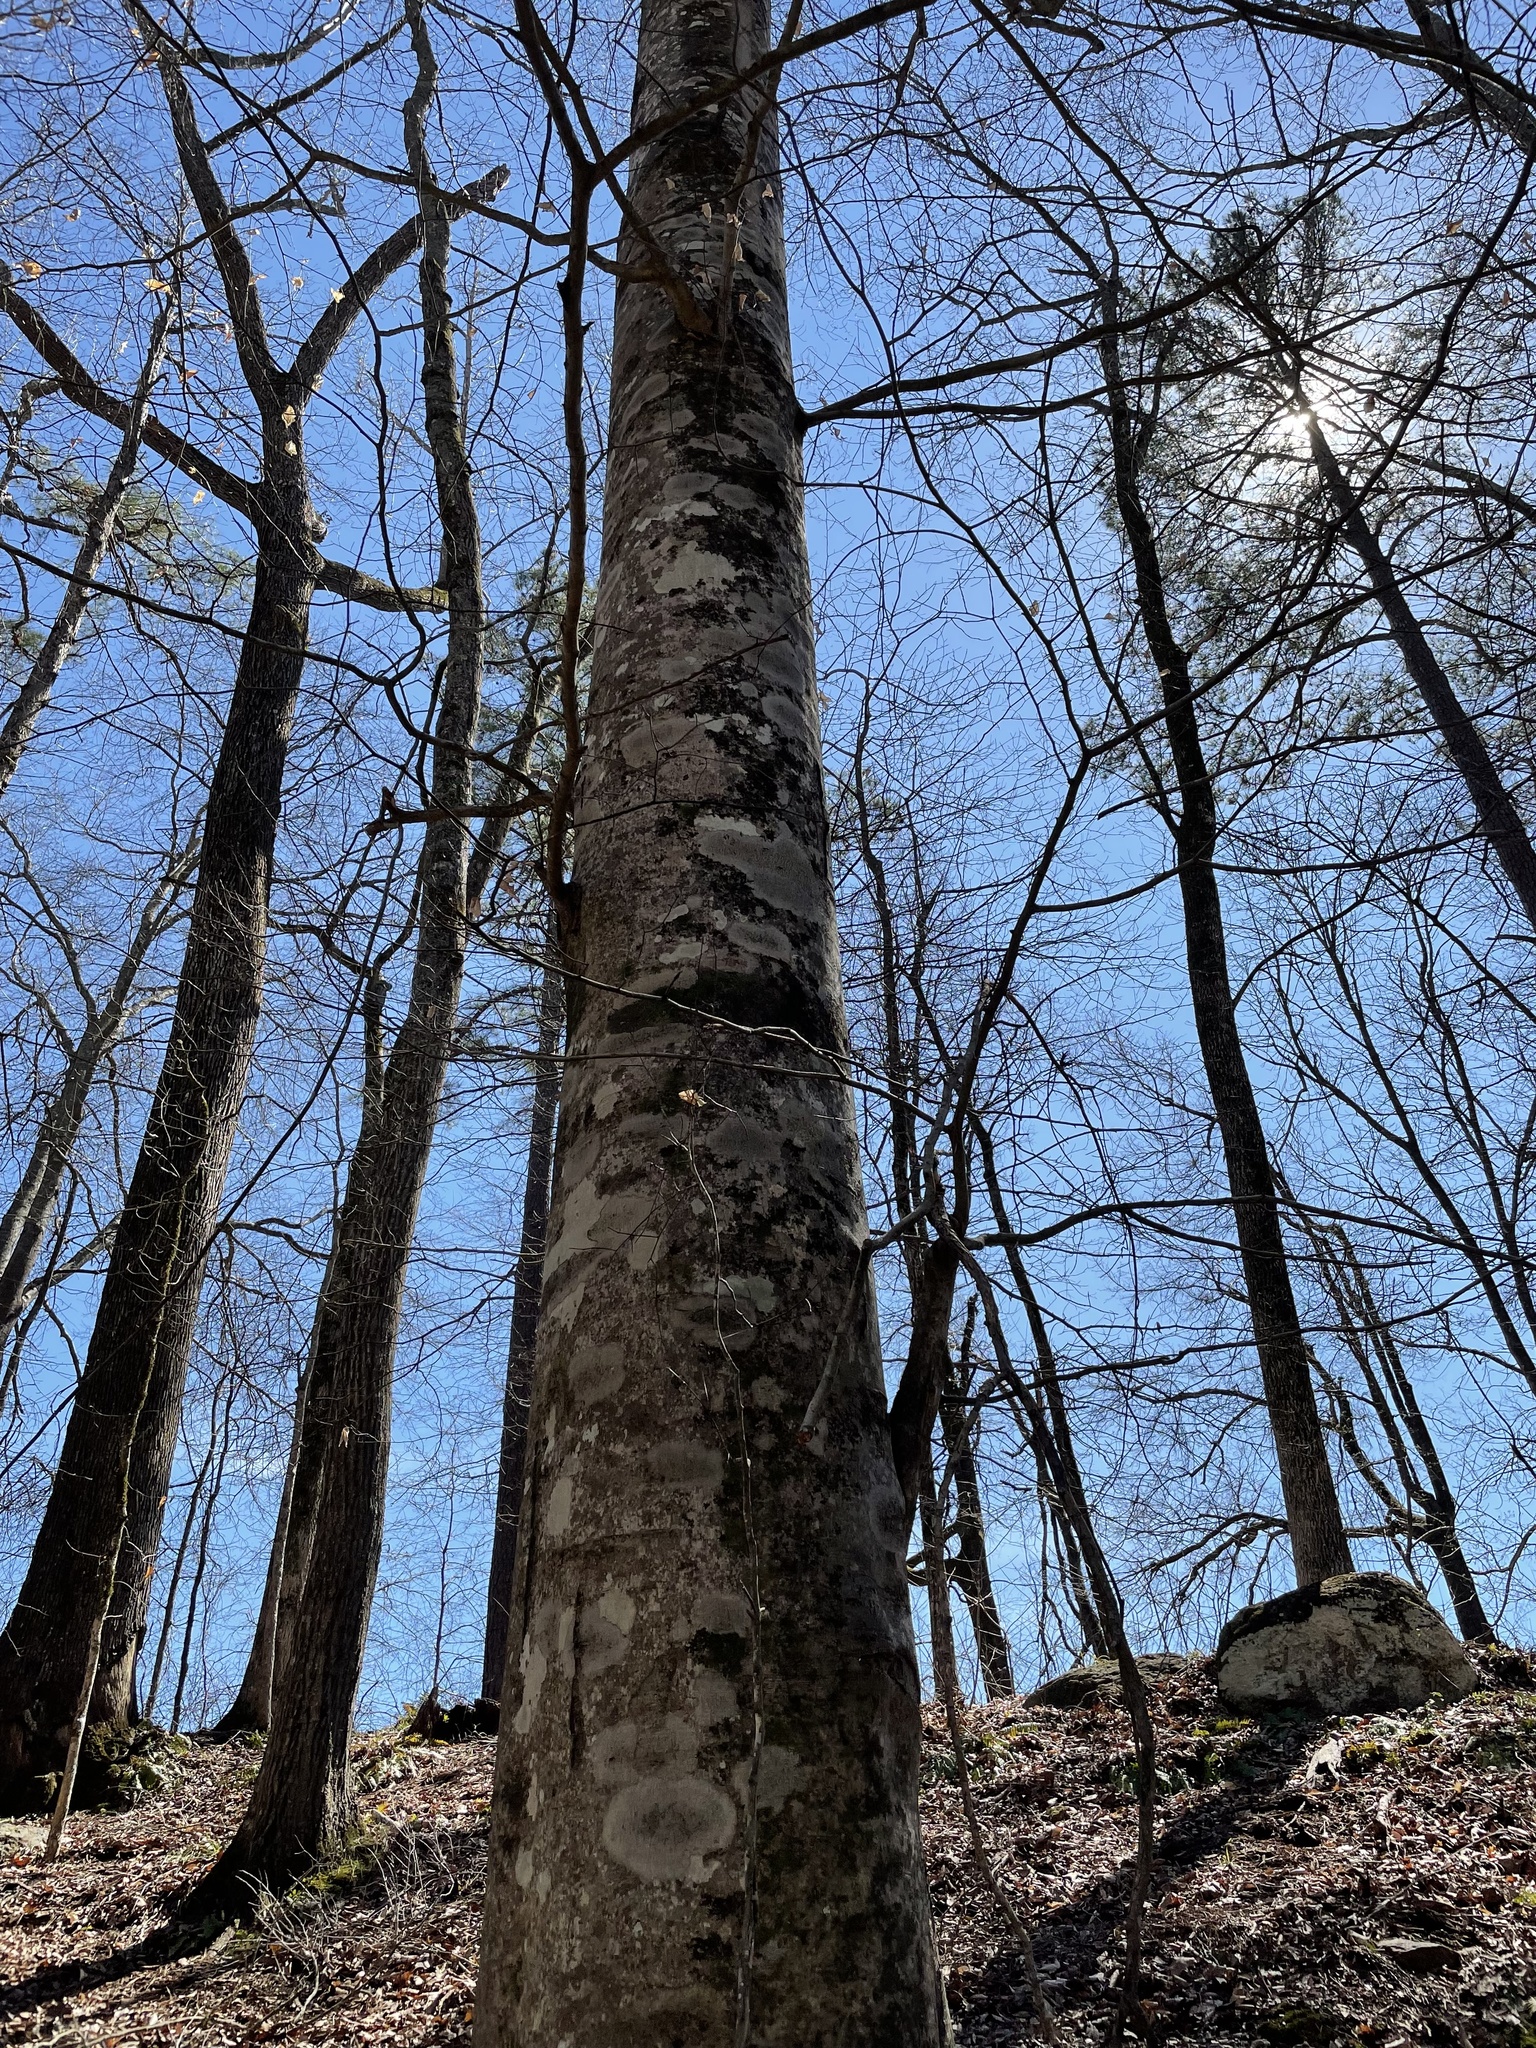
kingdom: Plantae
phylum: Tracheophyta
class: Magnoliopsida
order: Fagales
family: Fagaceae
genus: Fagus
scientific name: Fagus grandifolia
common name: American beech
